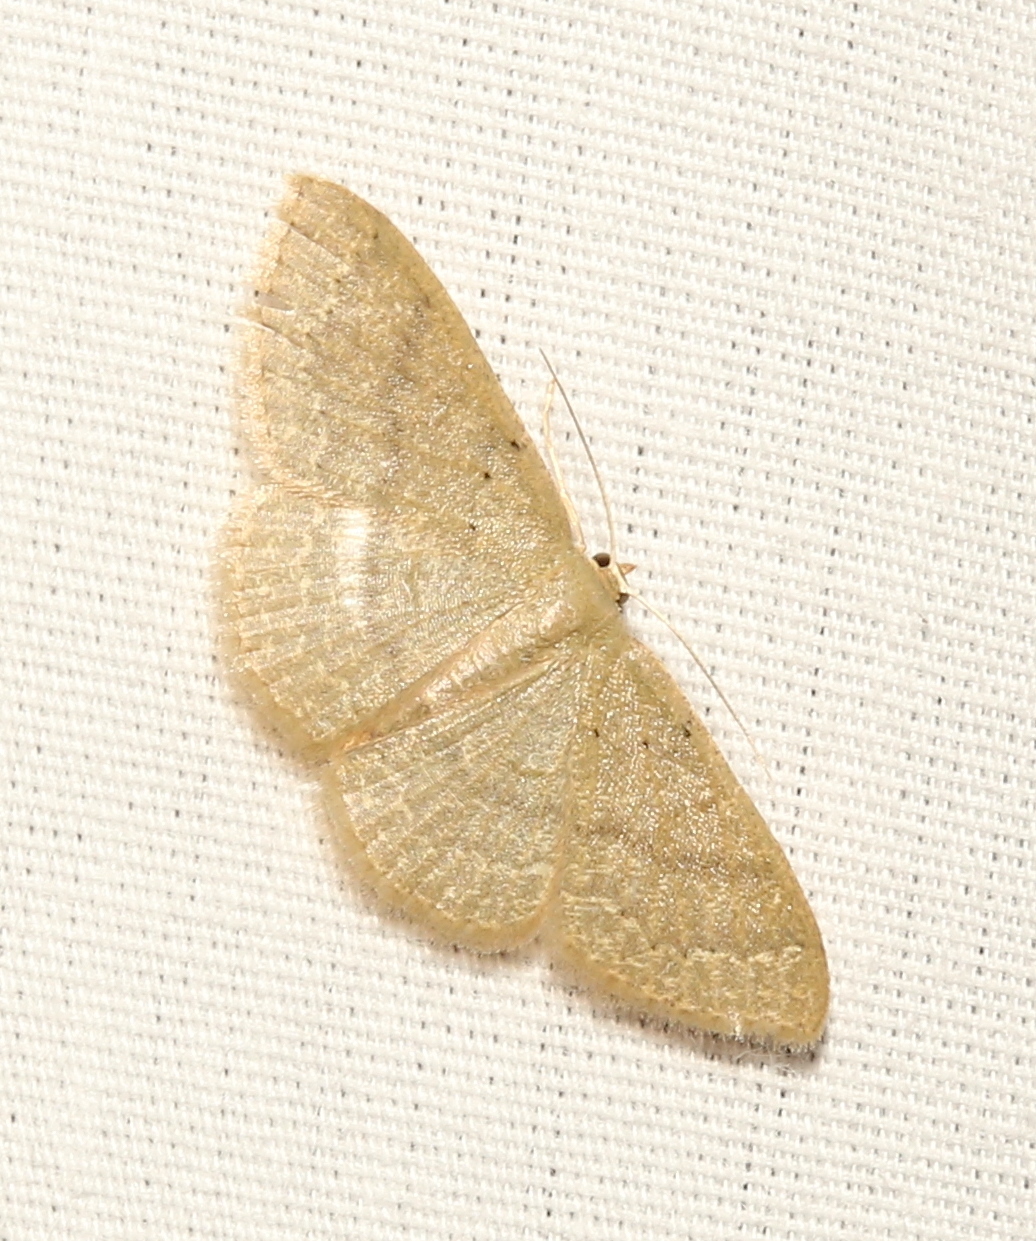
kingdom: Animalia
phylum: Arthropoda
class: Insecta
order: Lepidoptera
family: Geometridae
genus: Pleuroprucha
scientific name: Pleuroprucha insulsaria
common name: Common tan wave
